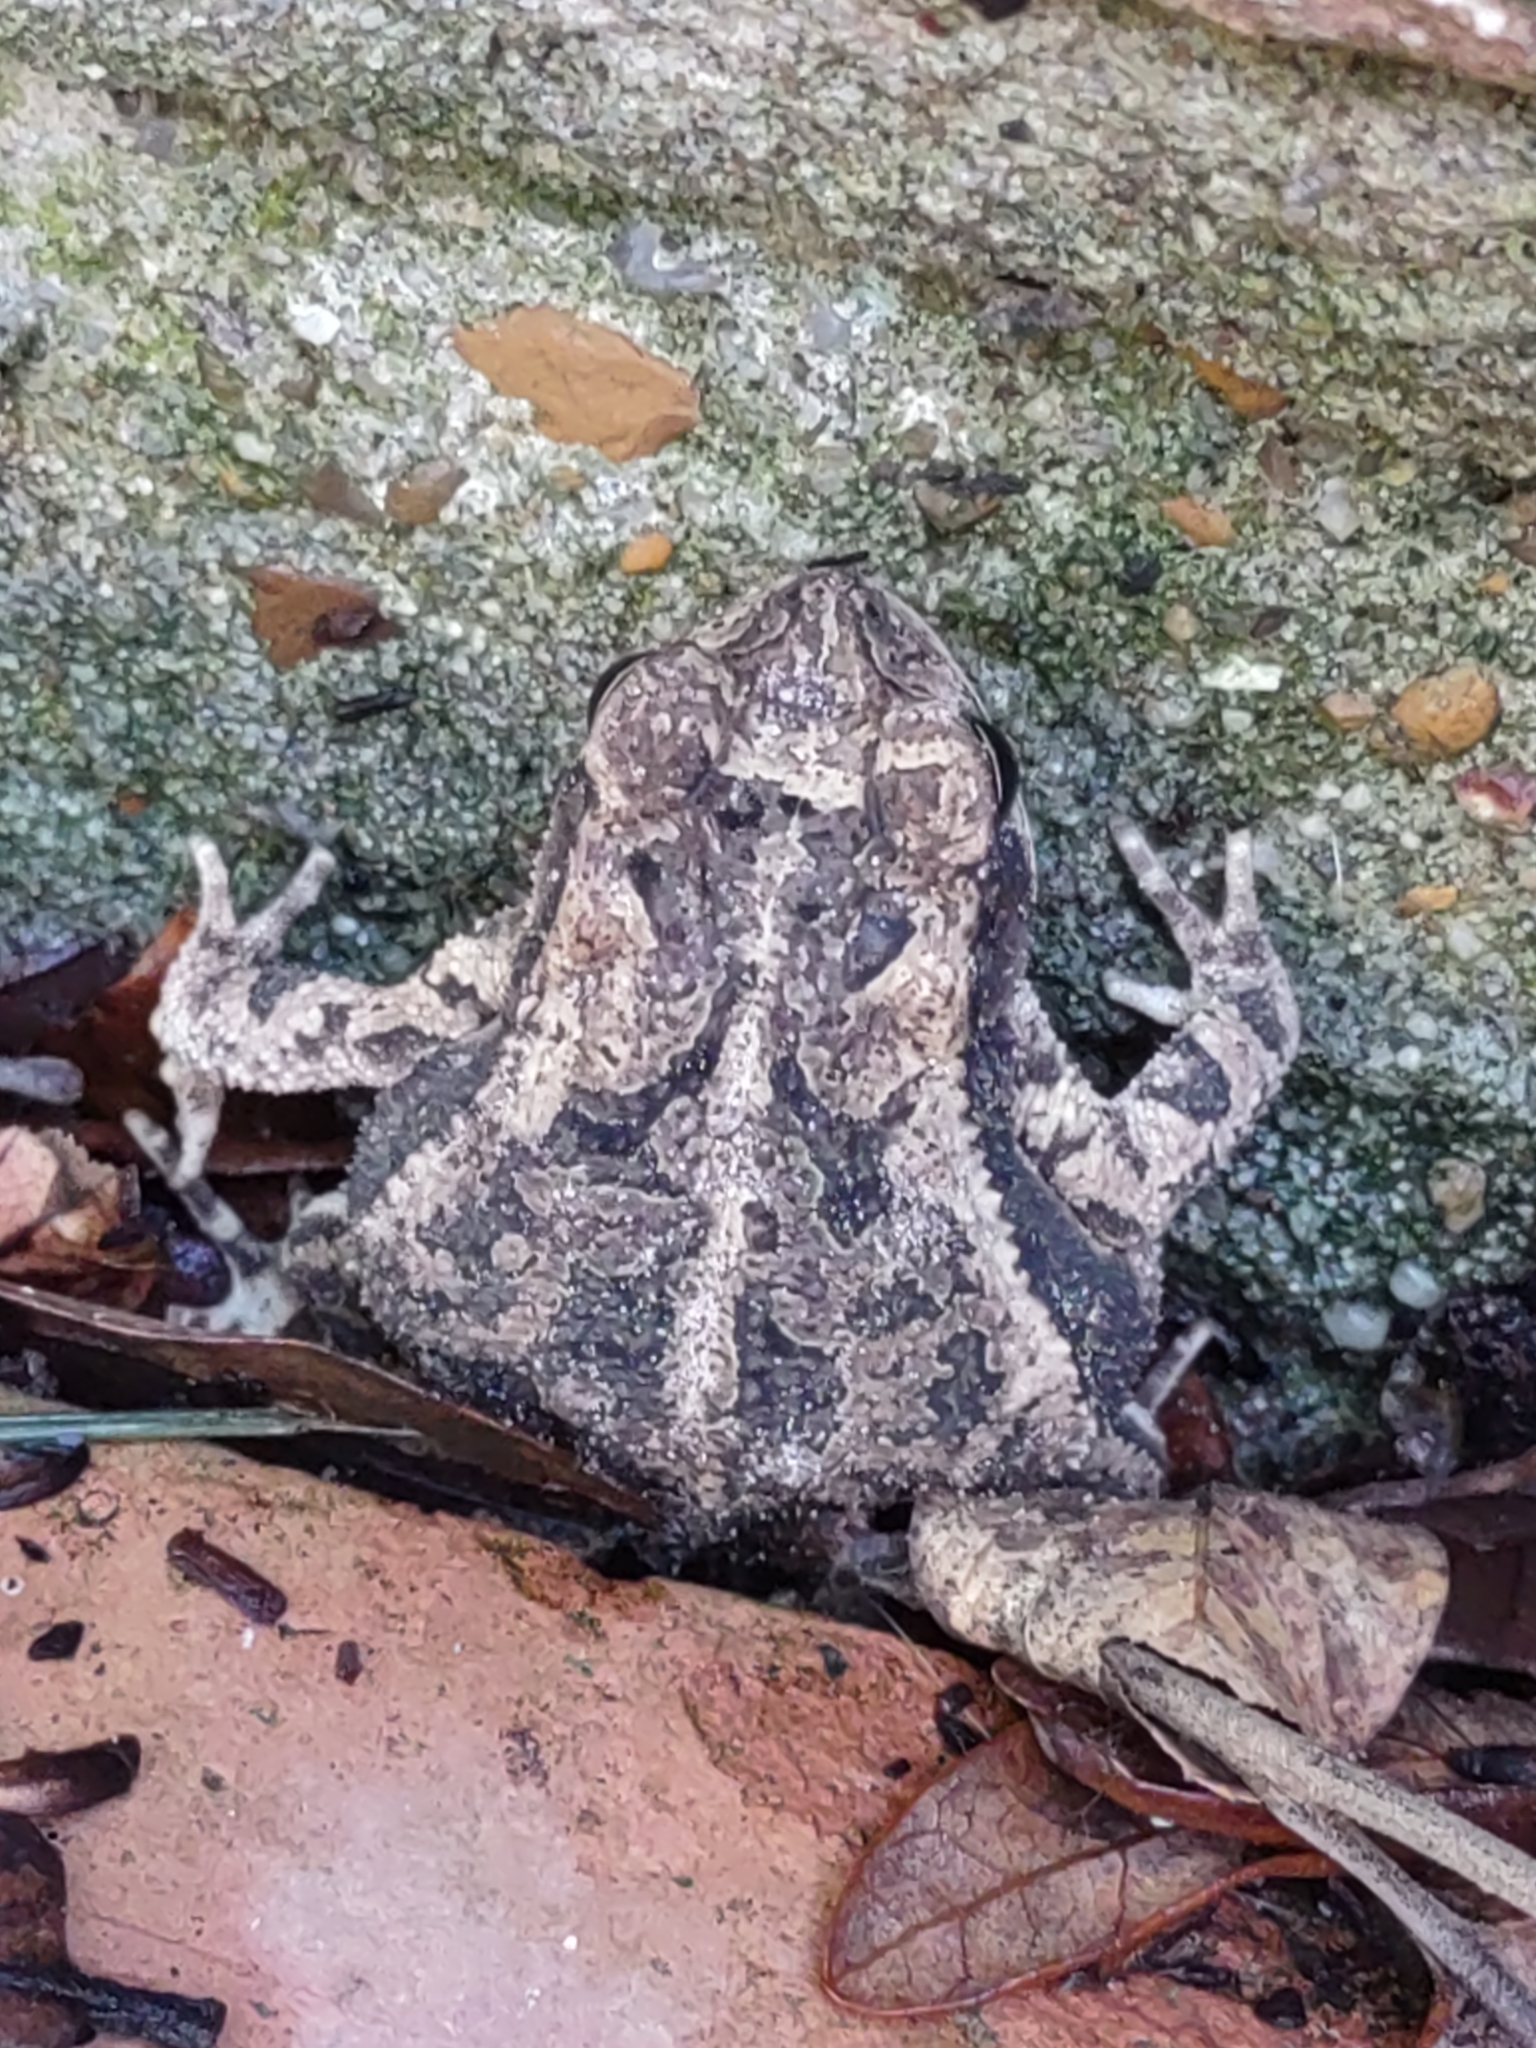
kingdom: Animalia
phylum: Chordata
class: Amphibia
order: Anura
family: Bufonidae
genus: Incilius
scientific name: Incilius nebulifer
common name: Gulf coast toad
